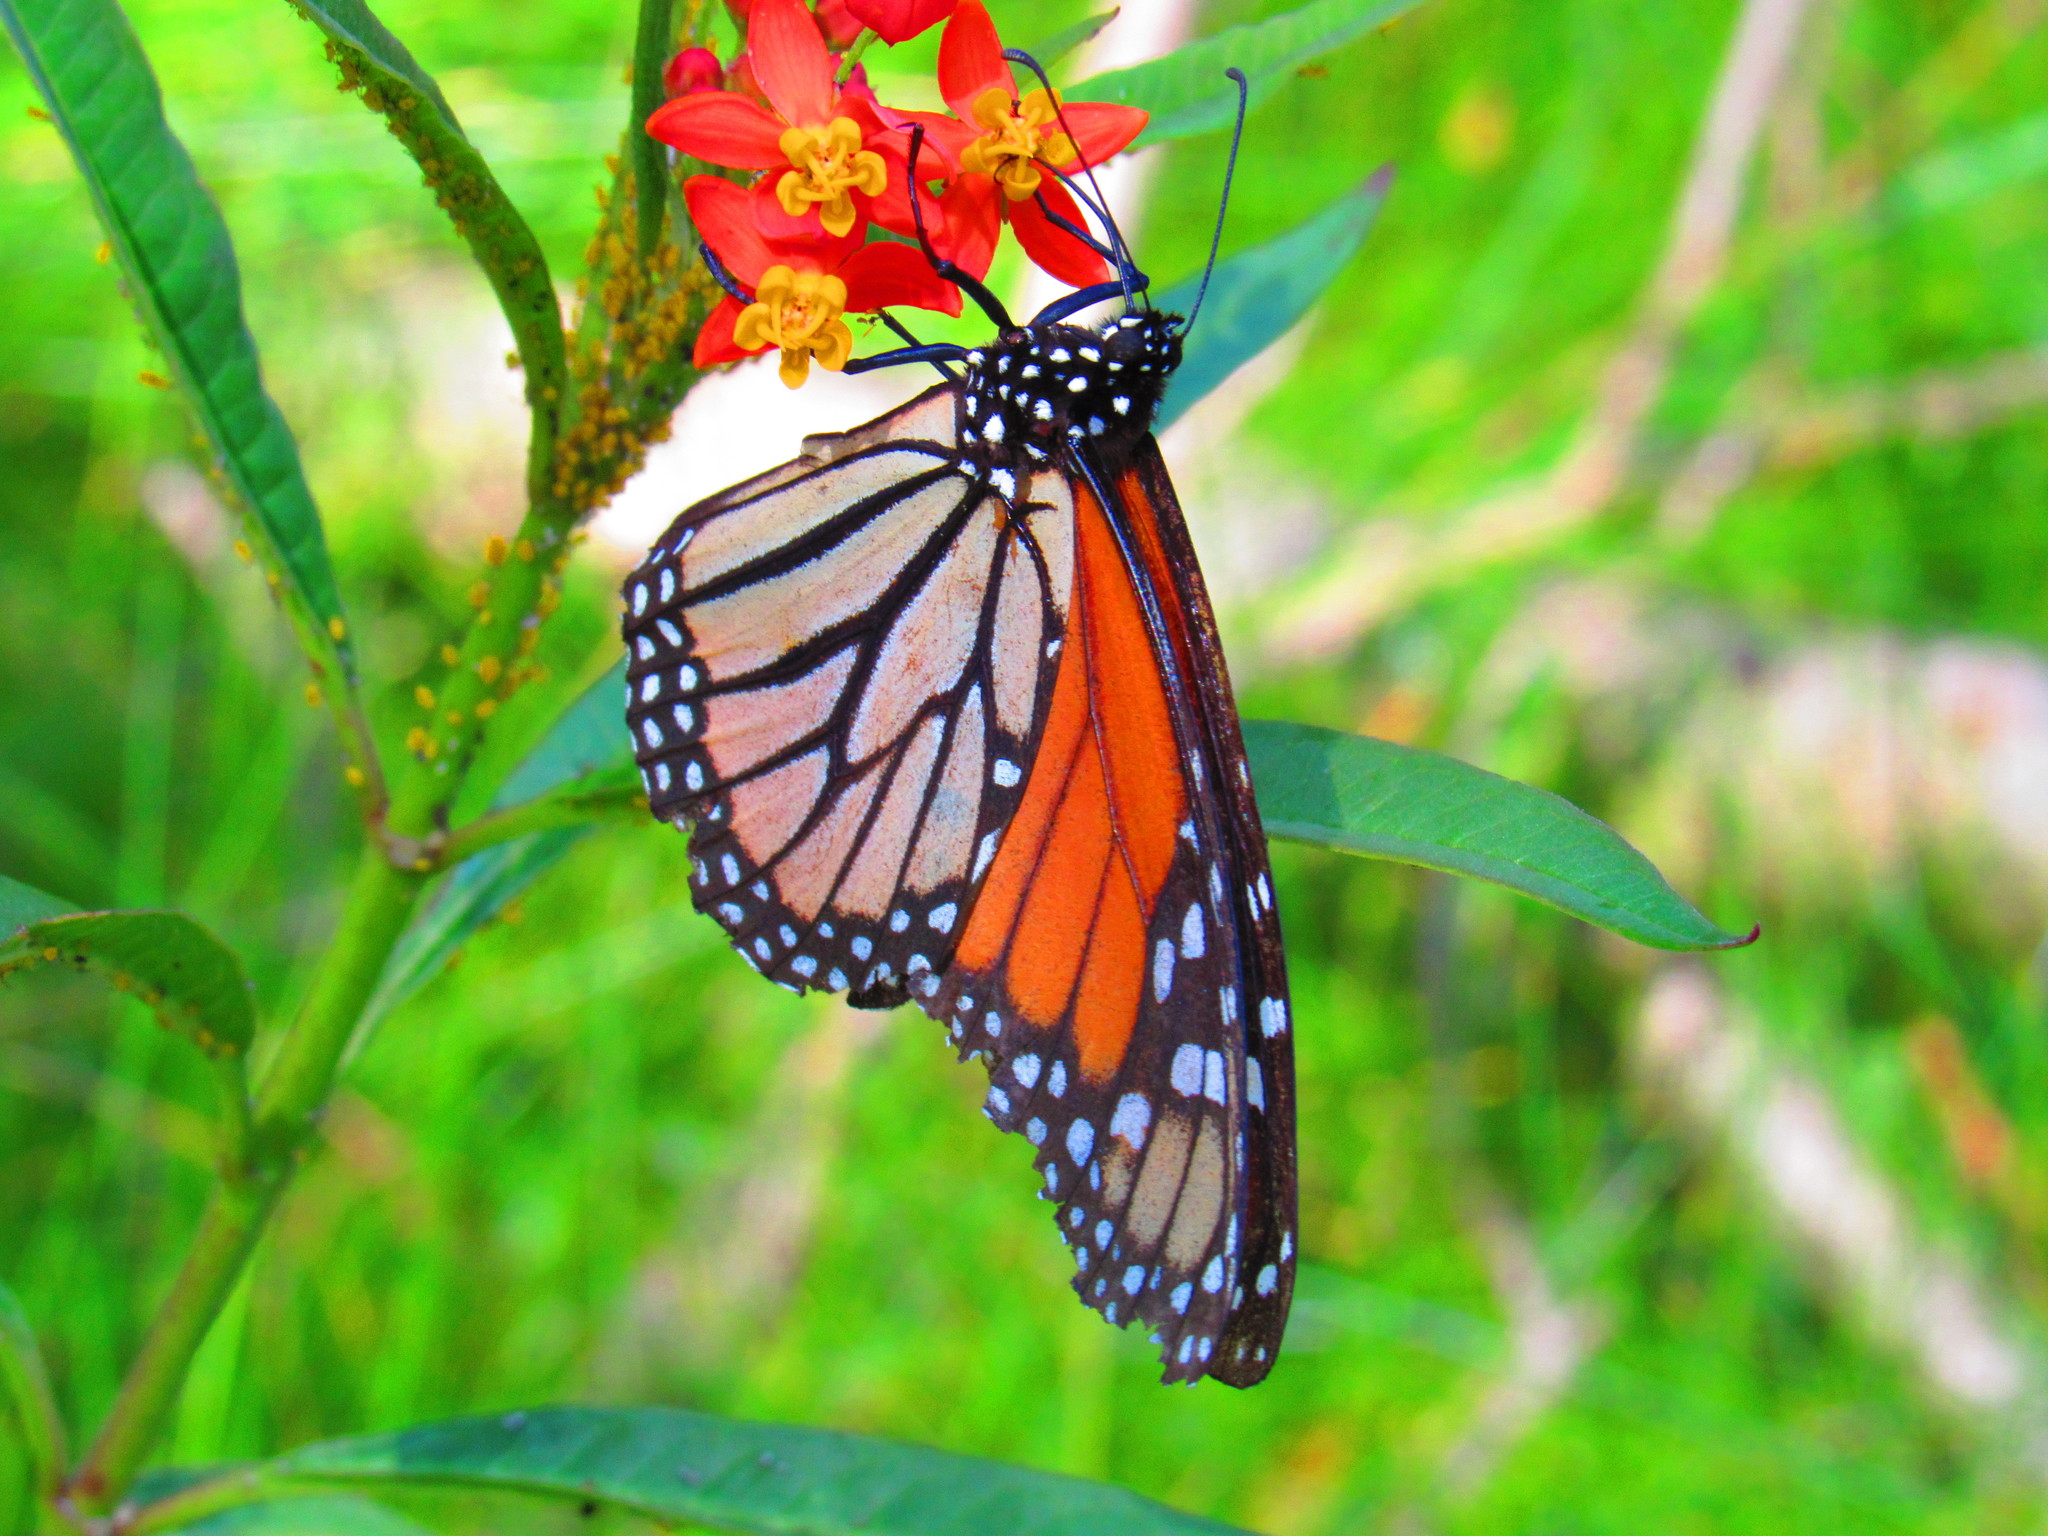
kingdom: Animalia
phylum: Arthropoda
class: Insecta
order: Lepidoptera
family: Nymphalidae
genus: Danaus
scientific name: Danaus plexippus
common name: Monarch
